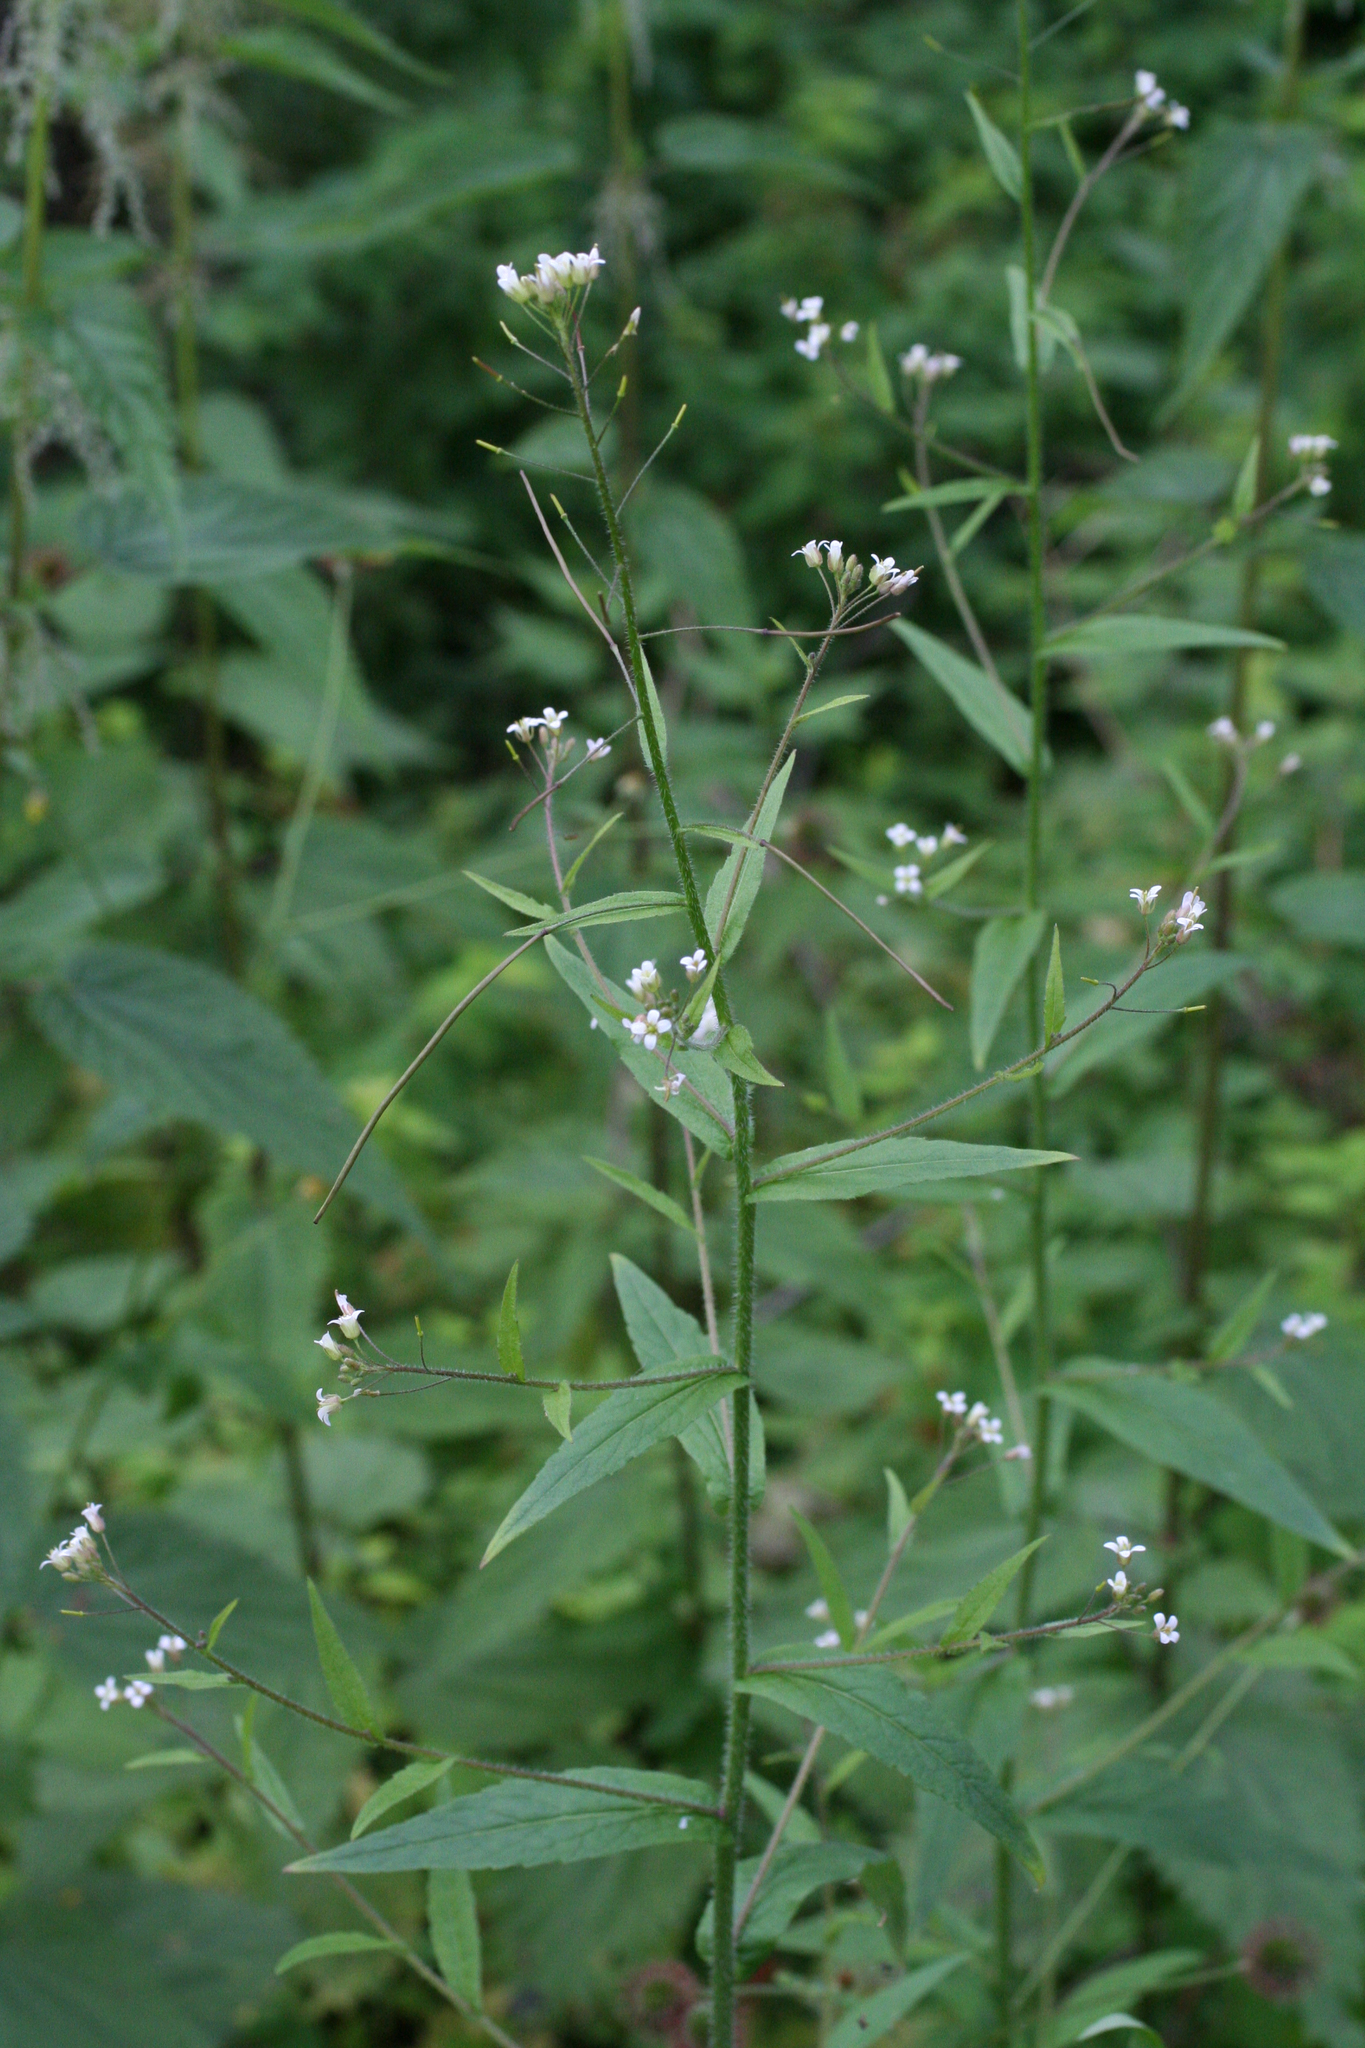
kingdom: Plantae
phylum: Tracheophyta
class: Magnoliopsida
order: Brassicales
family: Brassicaceae
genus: Catolobus
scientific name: Catolobus pendulus
